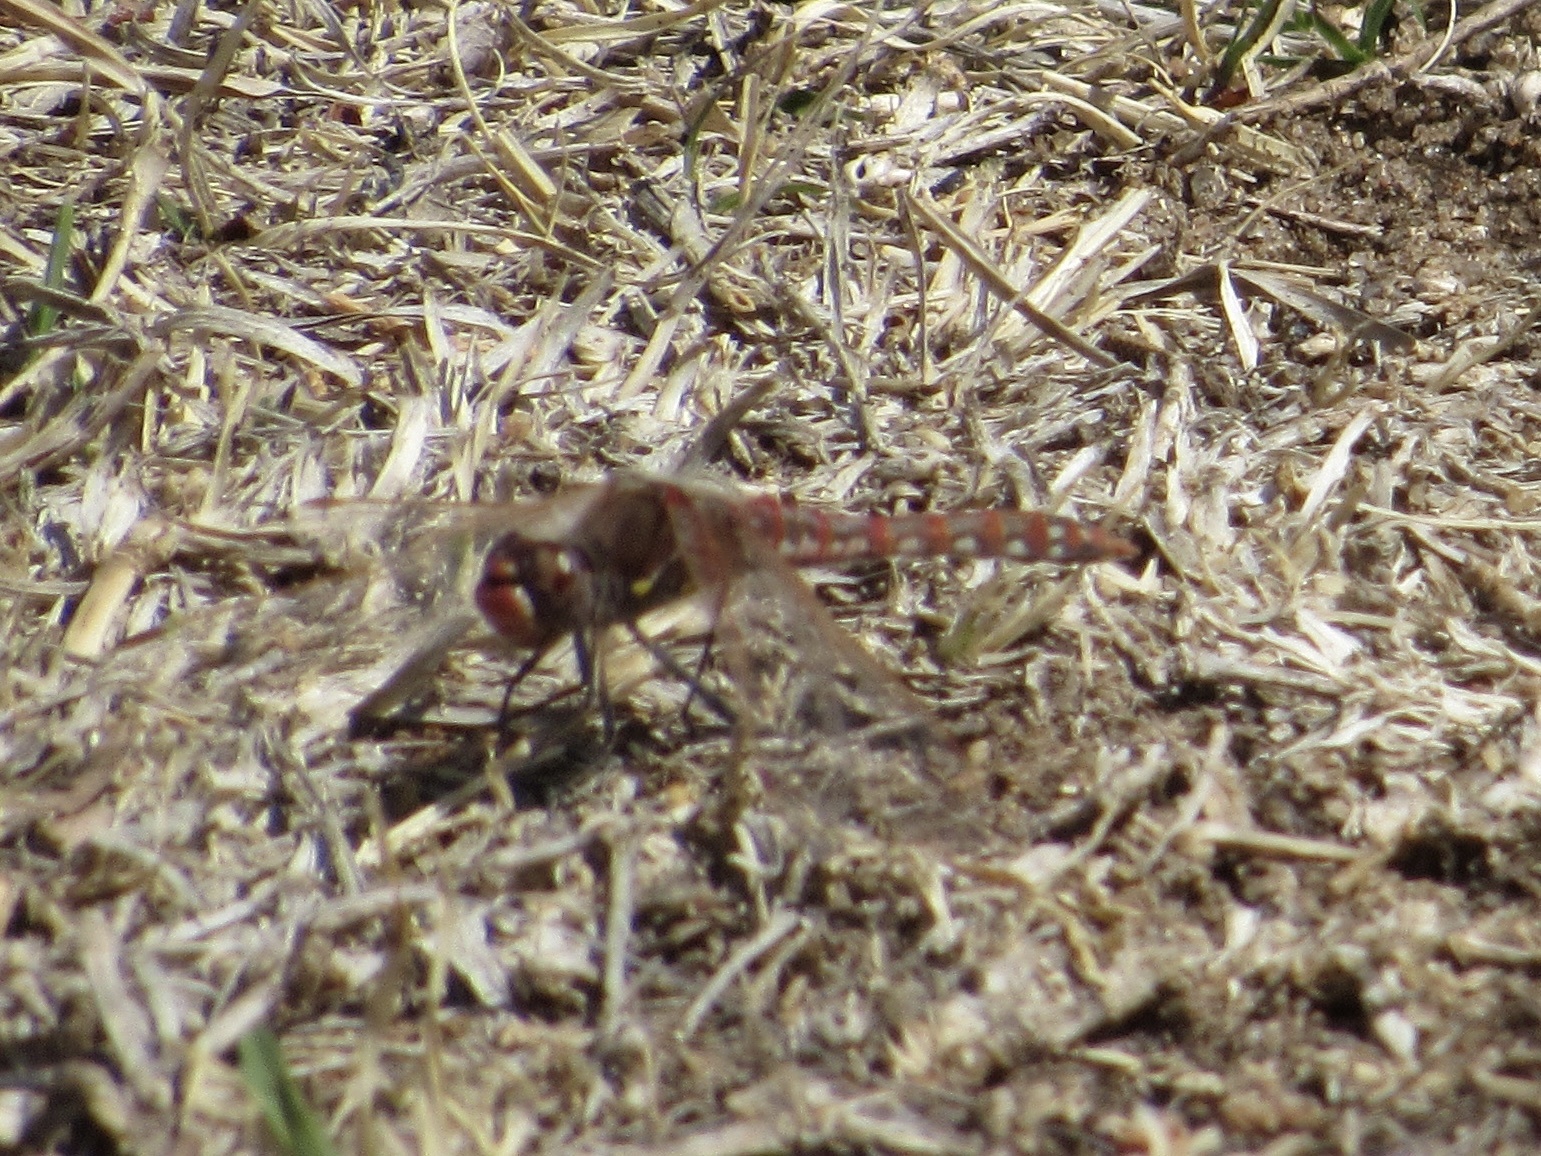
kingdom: Animalia
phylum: Arthropoda
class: Insecta
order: Odonata
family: Libellulidae
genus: Sympetrum
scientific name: Sympetrum corruptum
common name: Variegated meadowhawk
